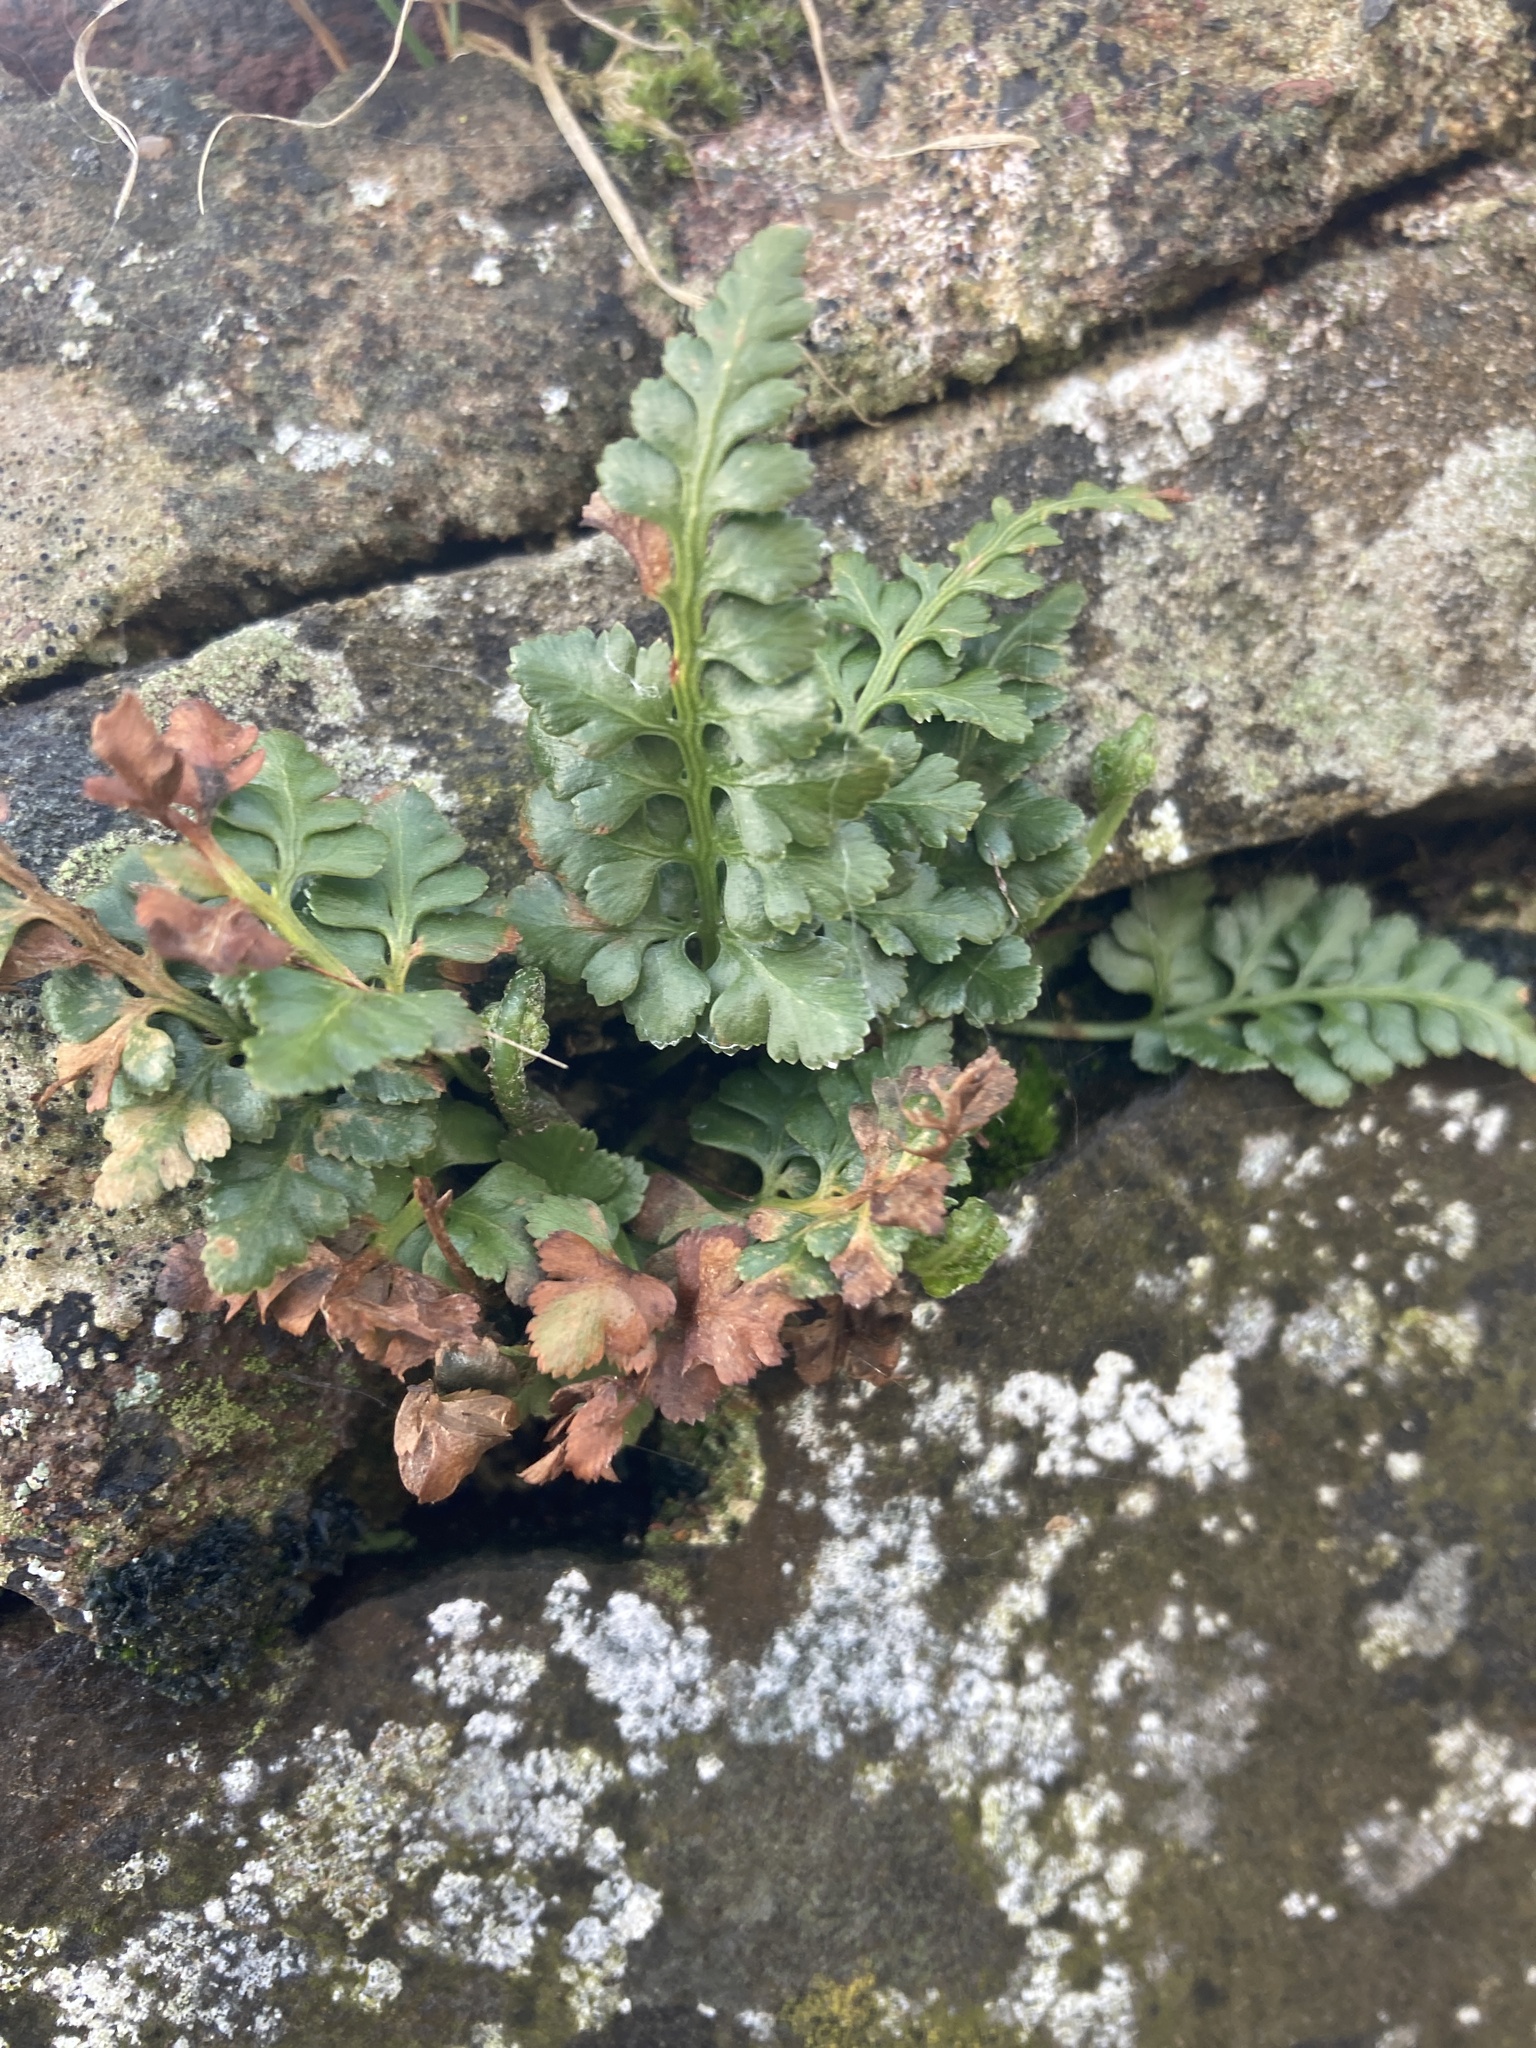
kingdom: Plantae
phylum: Tracheophyta
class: Polypodiopsida
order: Polypodiales
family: Aspleniaceae
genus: Asplenium
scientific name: Asplenium adiantum-nigrum
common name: Black spleenwort
